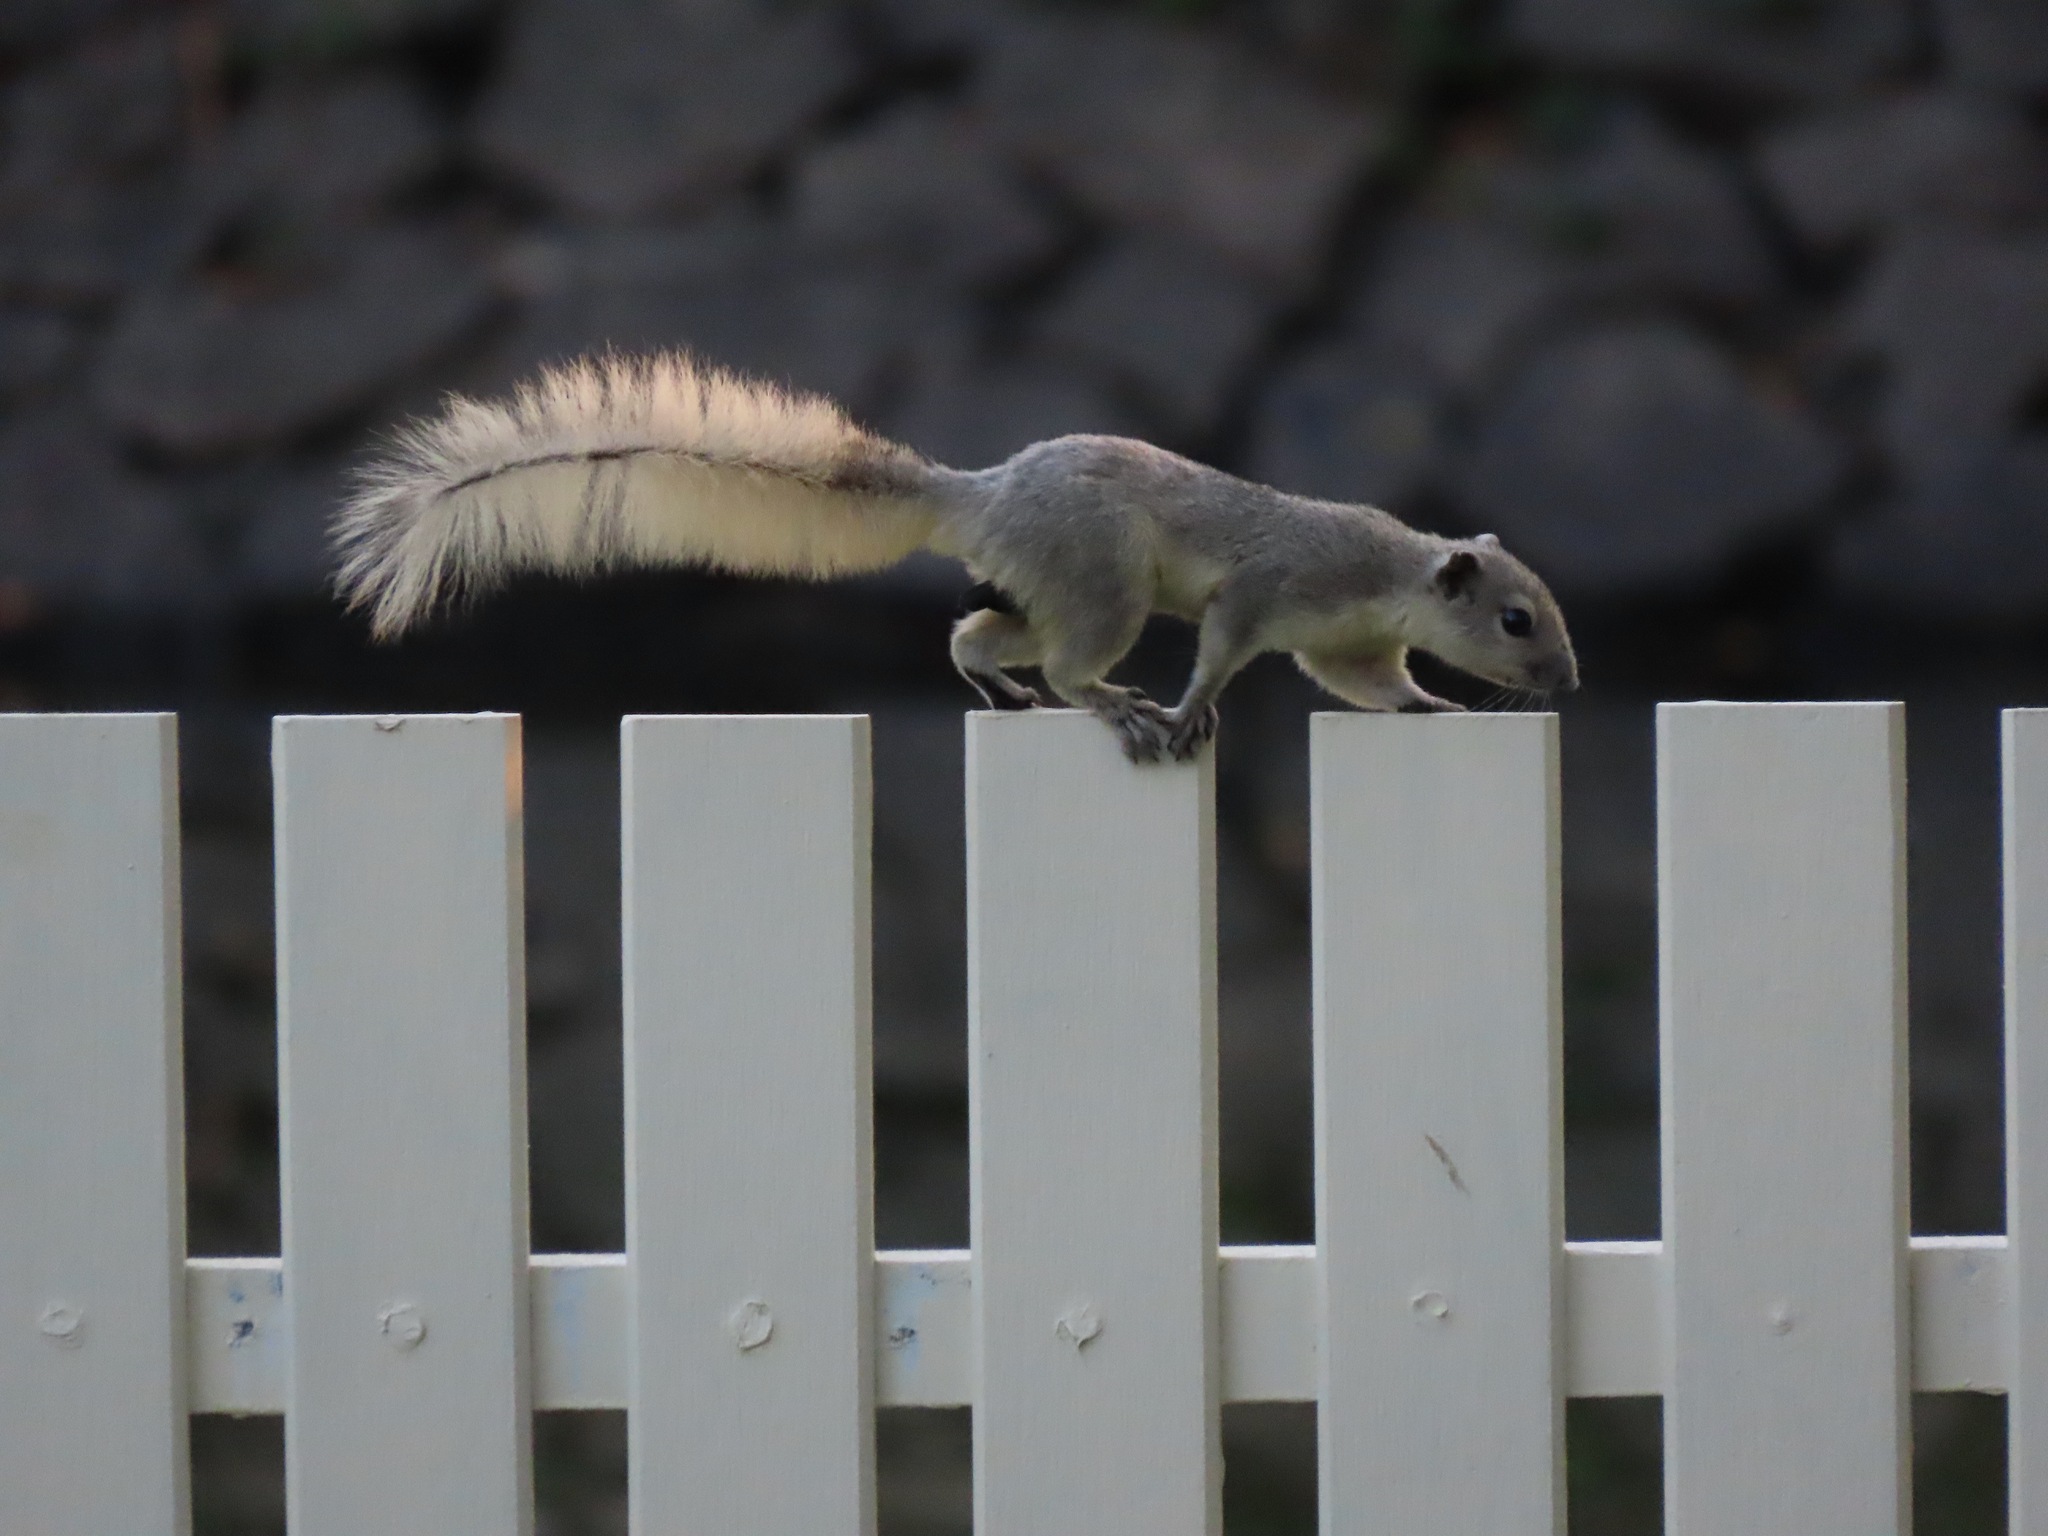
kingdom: Animalia
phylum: Chordata
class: Mammalia
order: Rodentia
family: Sciuridae
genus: Callosciurus
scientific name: Callosciurus finlaysonii
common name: Finlayson's squirrel
